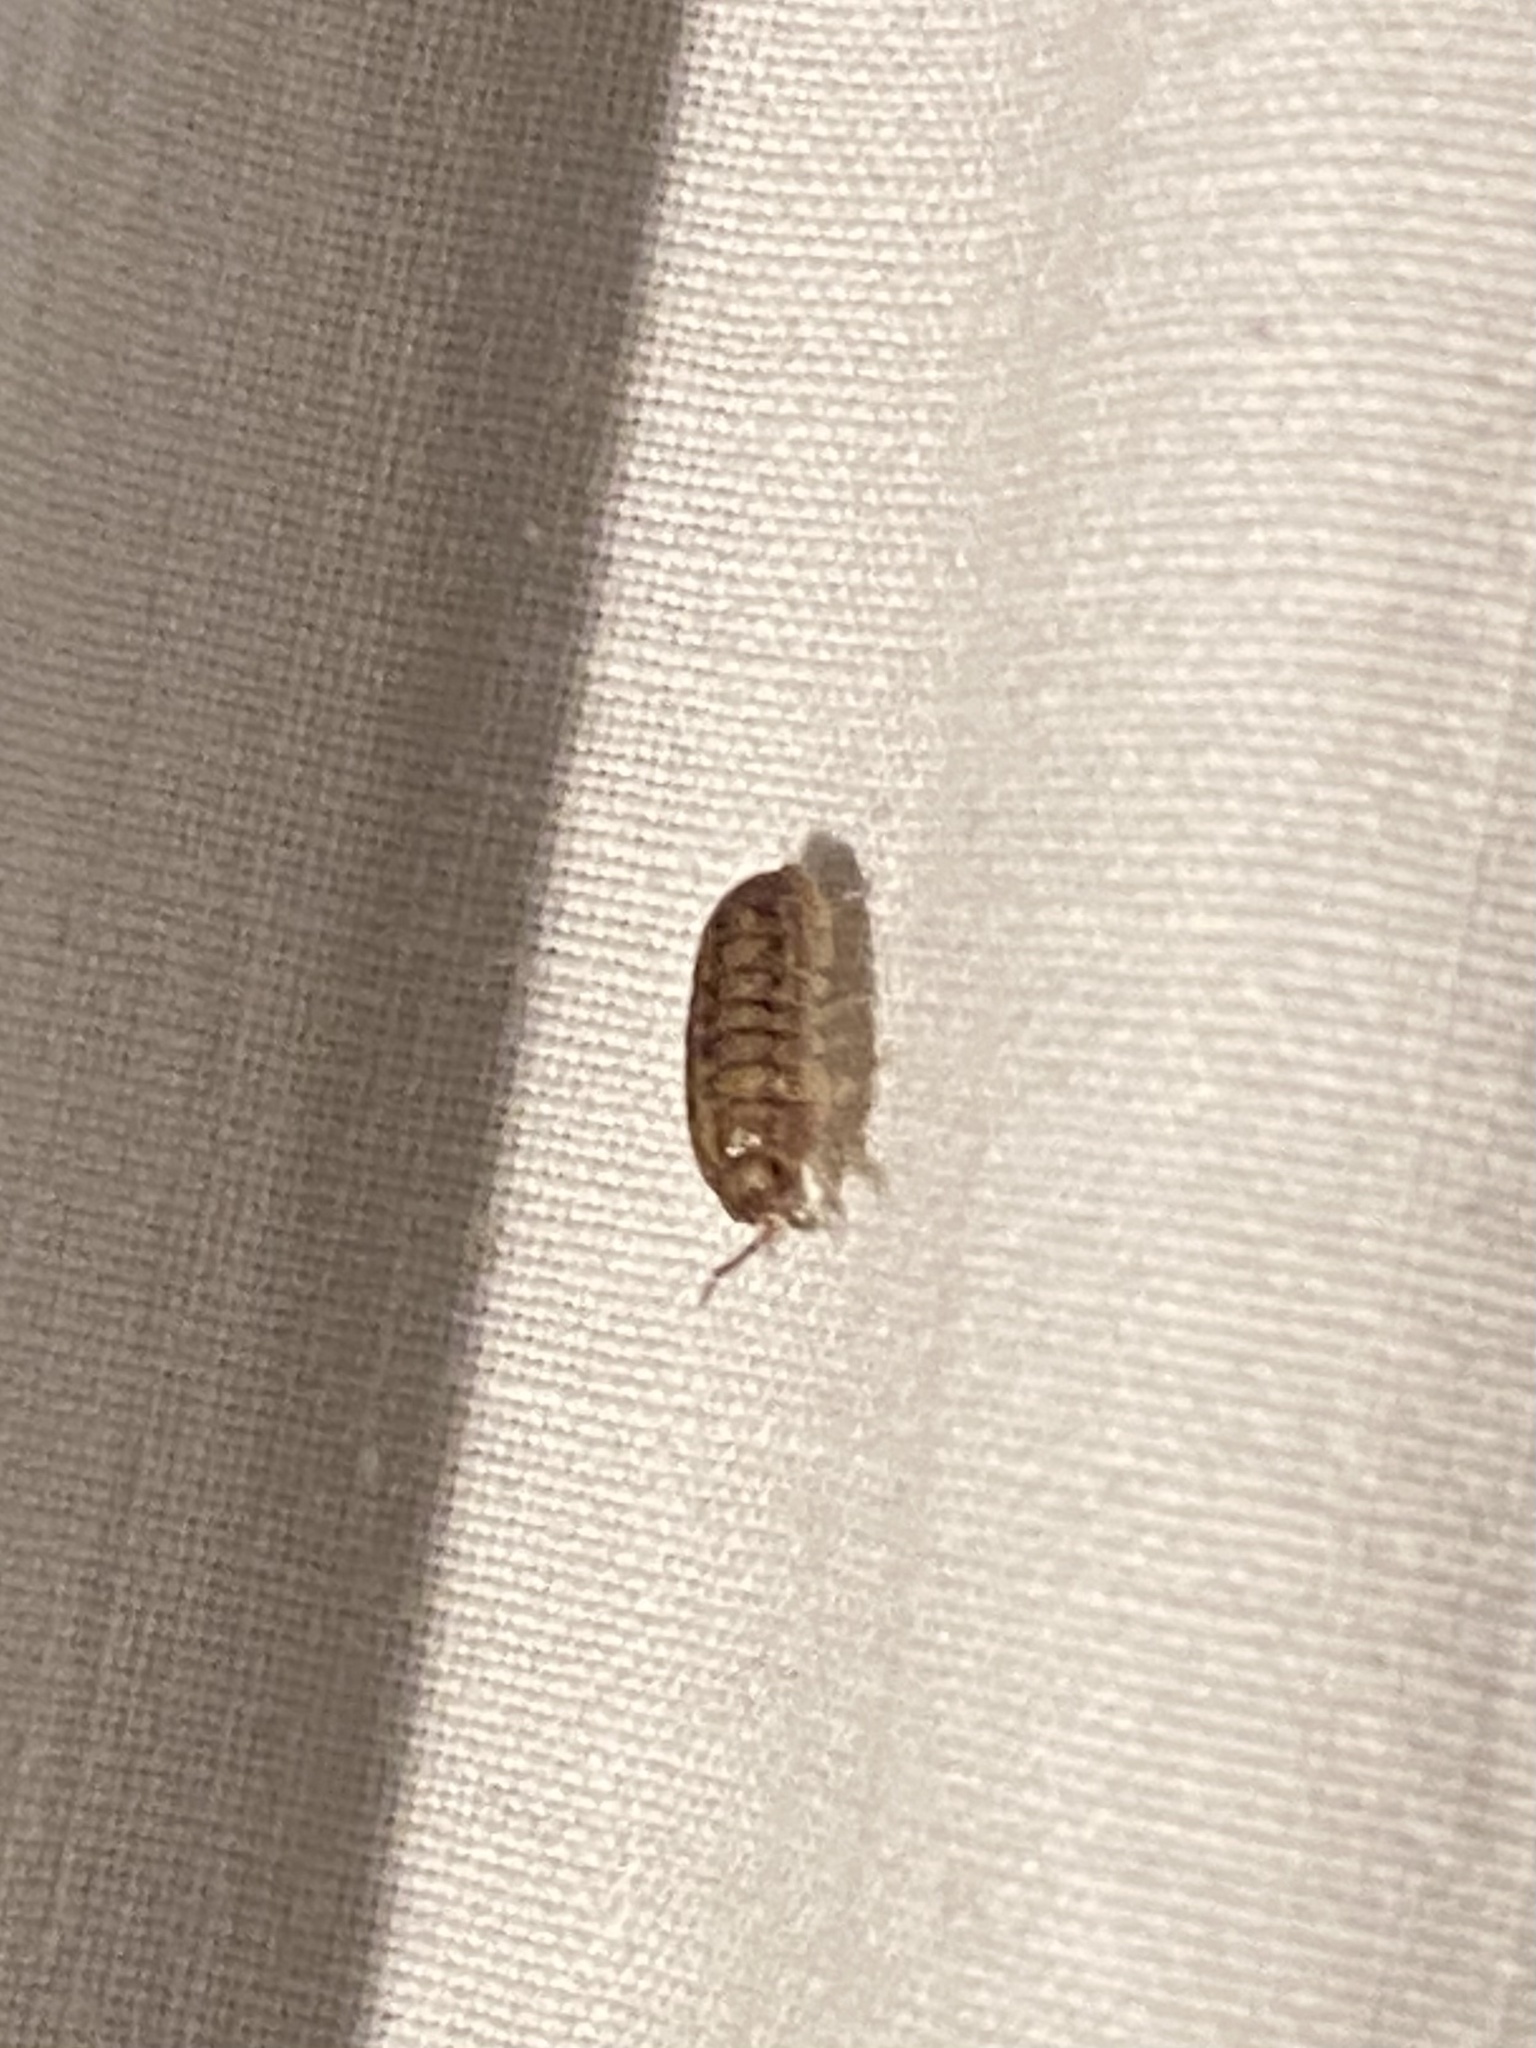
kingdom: Animalia
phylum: Arthropoda
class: Malacostraca
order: Isopoda
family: Armadillidiidae
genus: Armadillidium
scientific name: Armadillidium vulgare
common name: Common pill woodlouse
